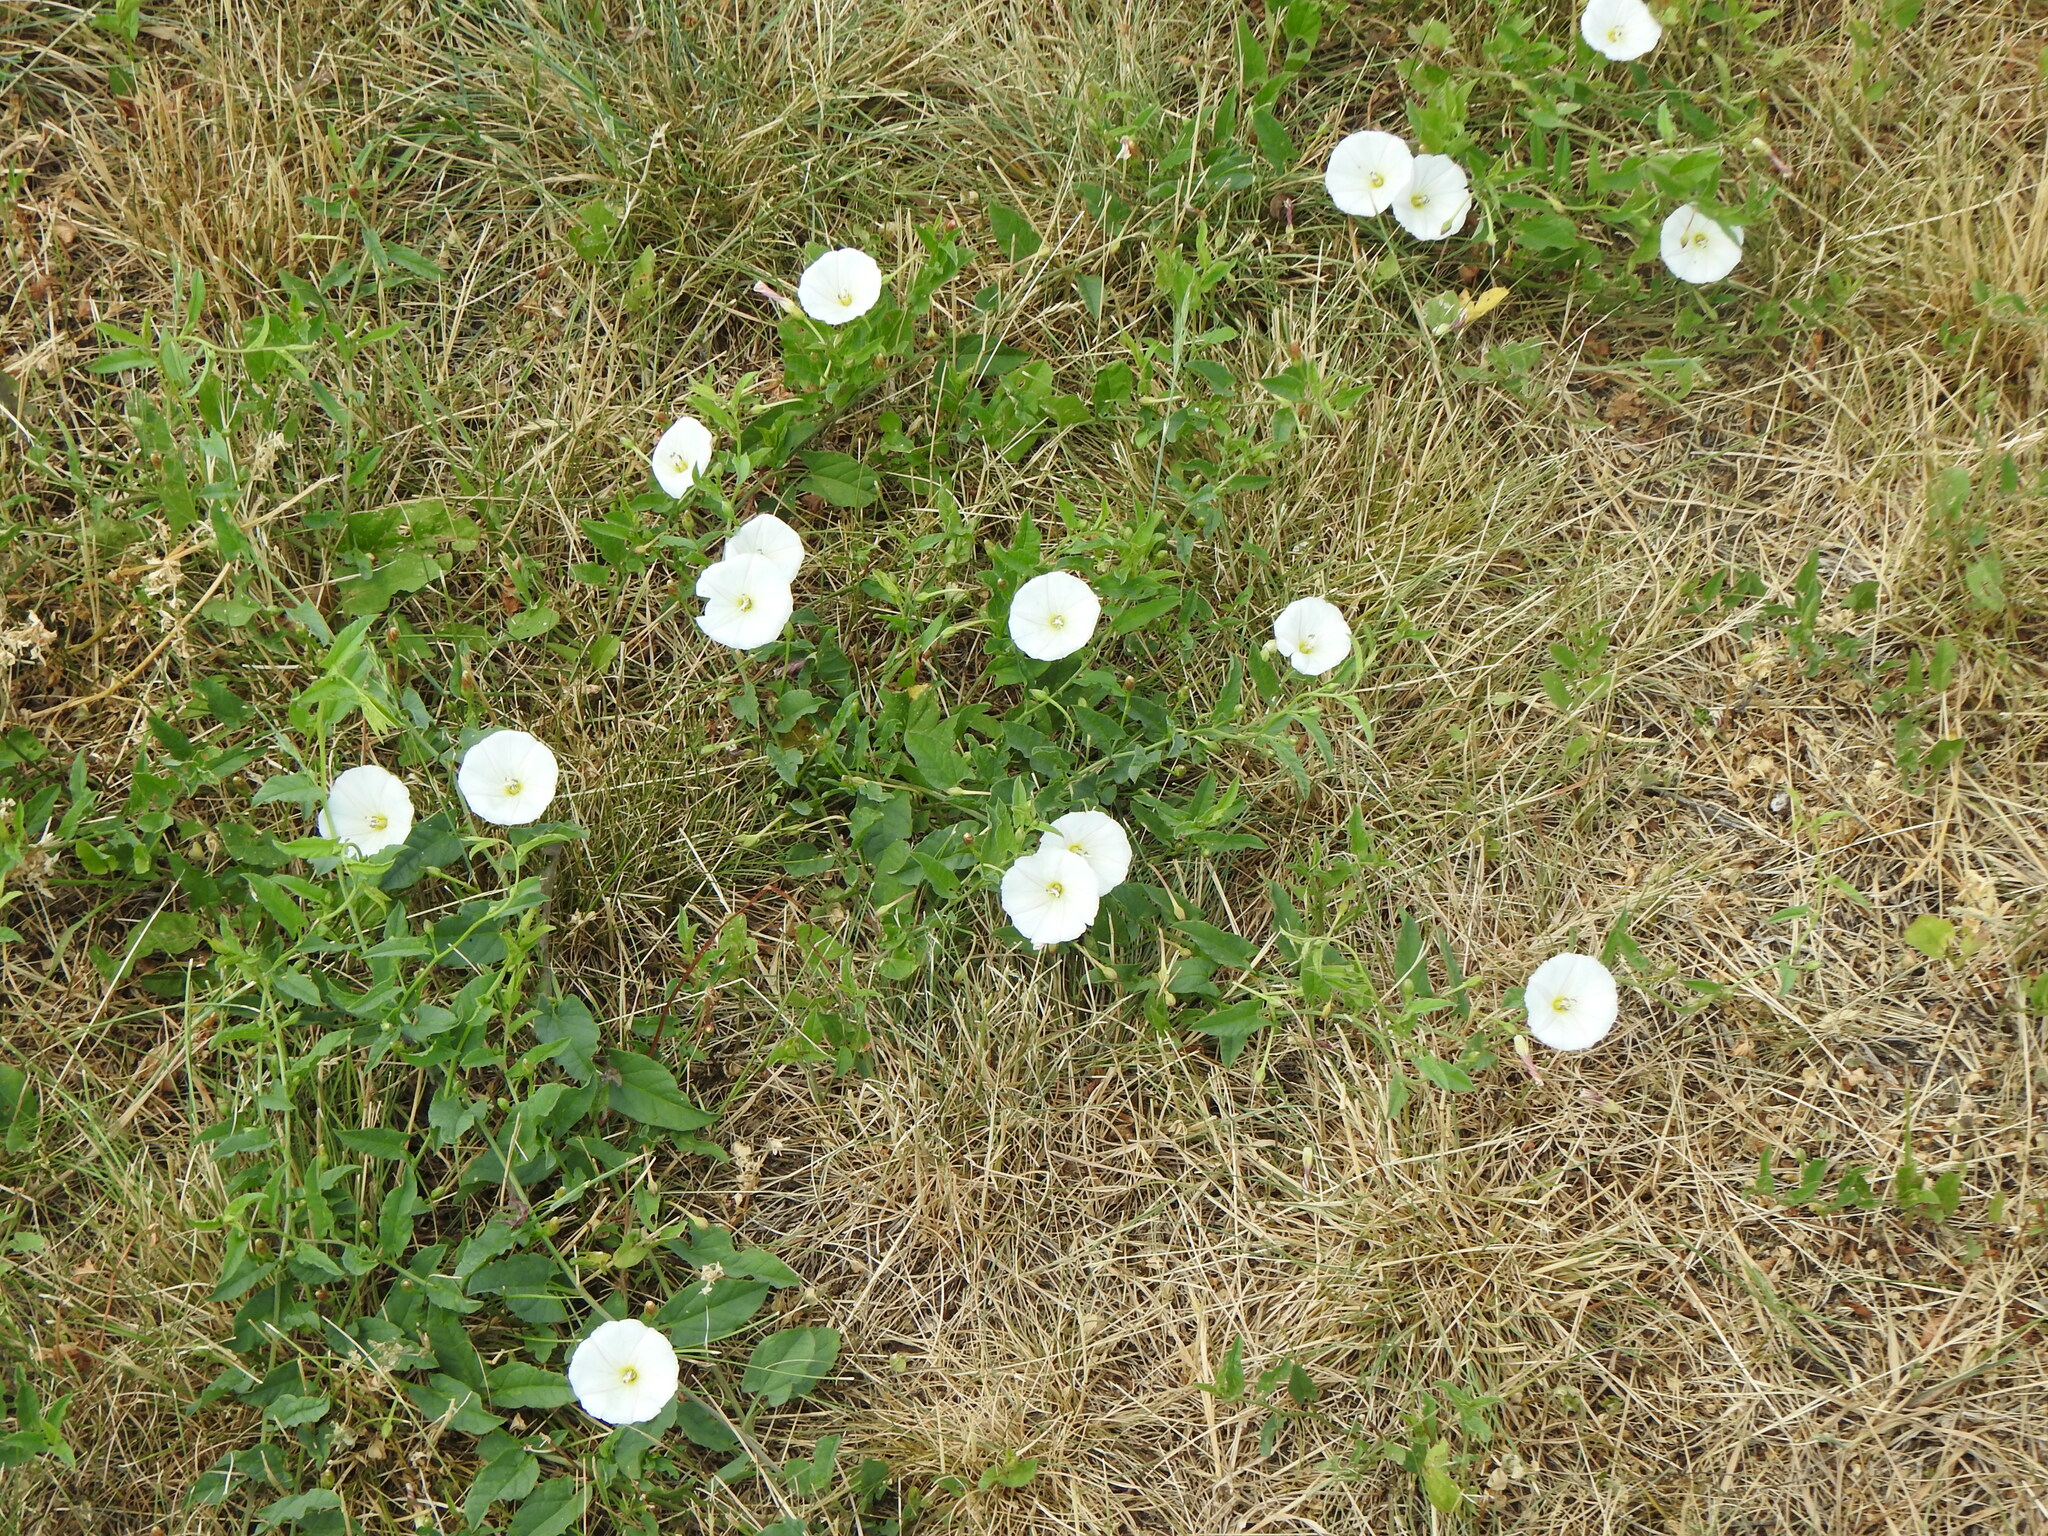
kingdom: Plantae
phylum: Tracheophyta
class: Magnoliopsida
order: Solanales
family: Convolvulaceae
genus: Convolvulus
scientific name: Convolvulus arvensis
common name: Field bindweed
